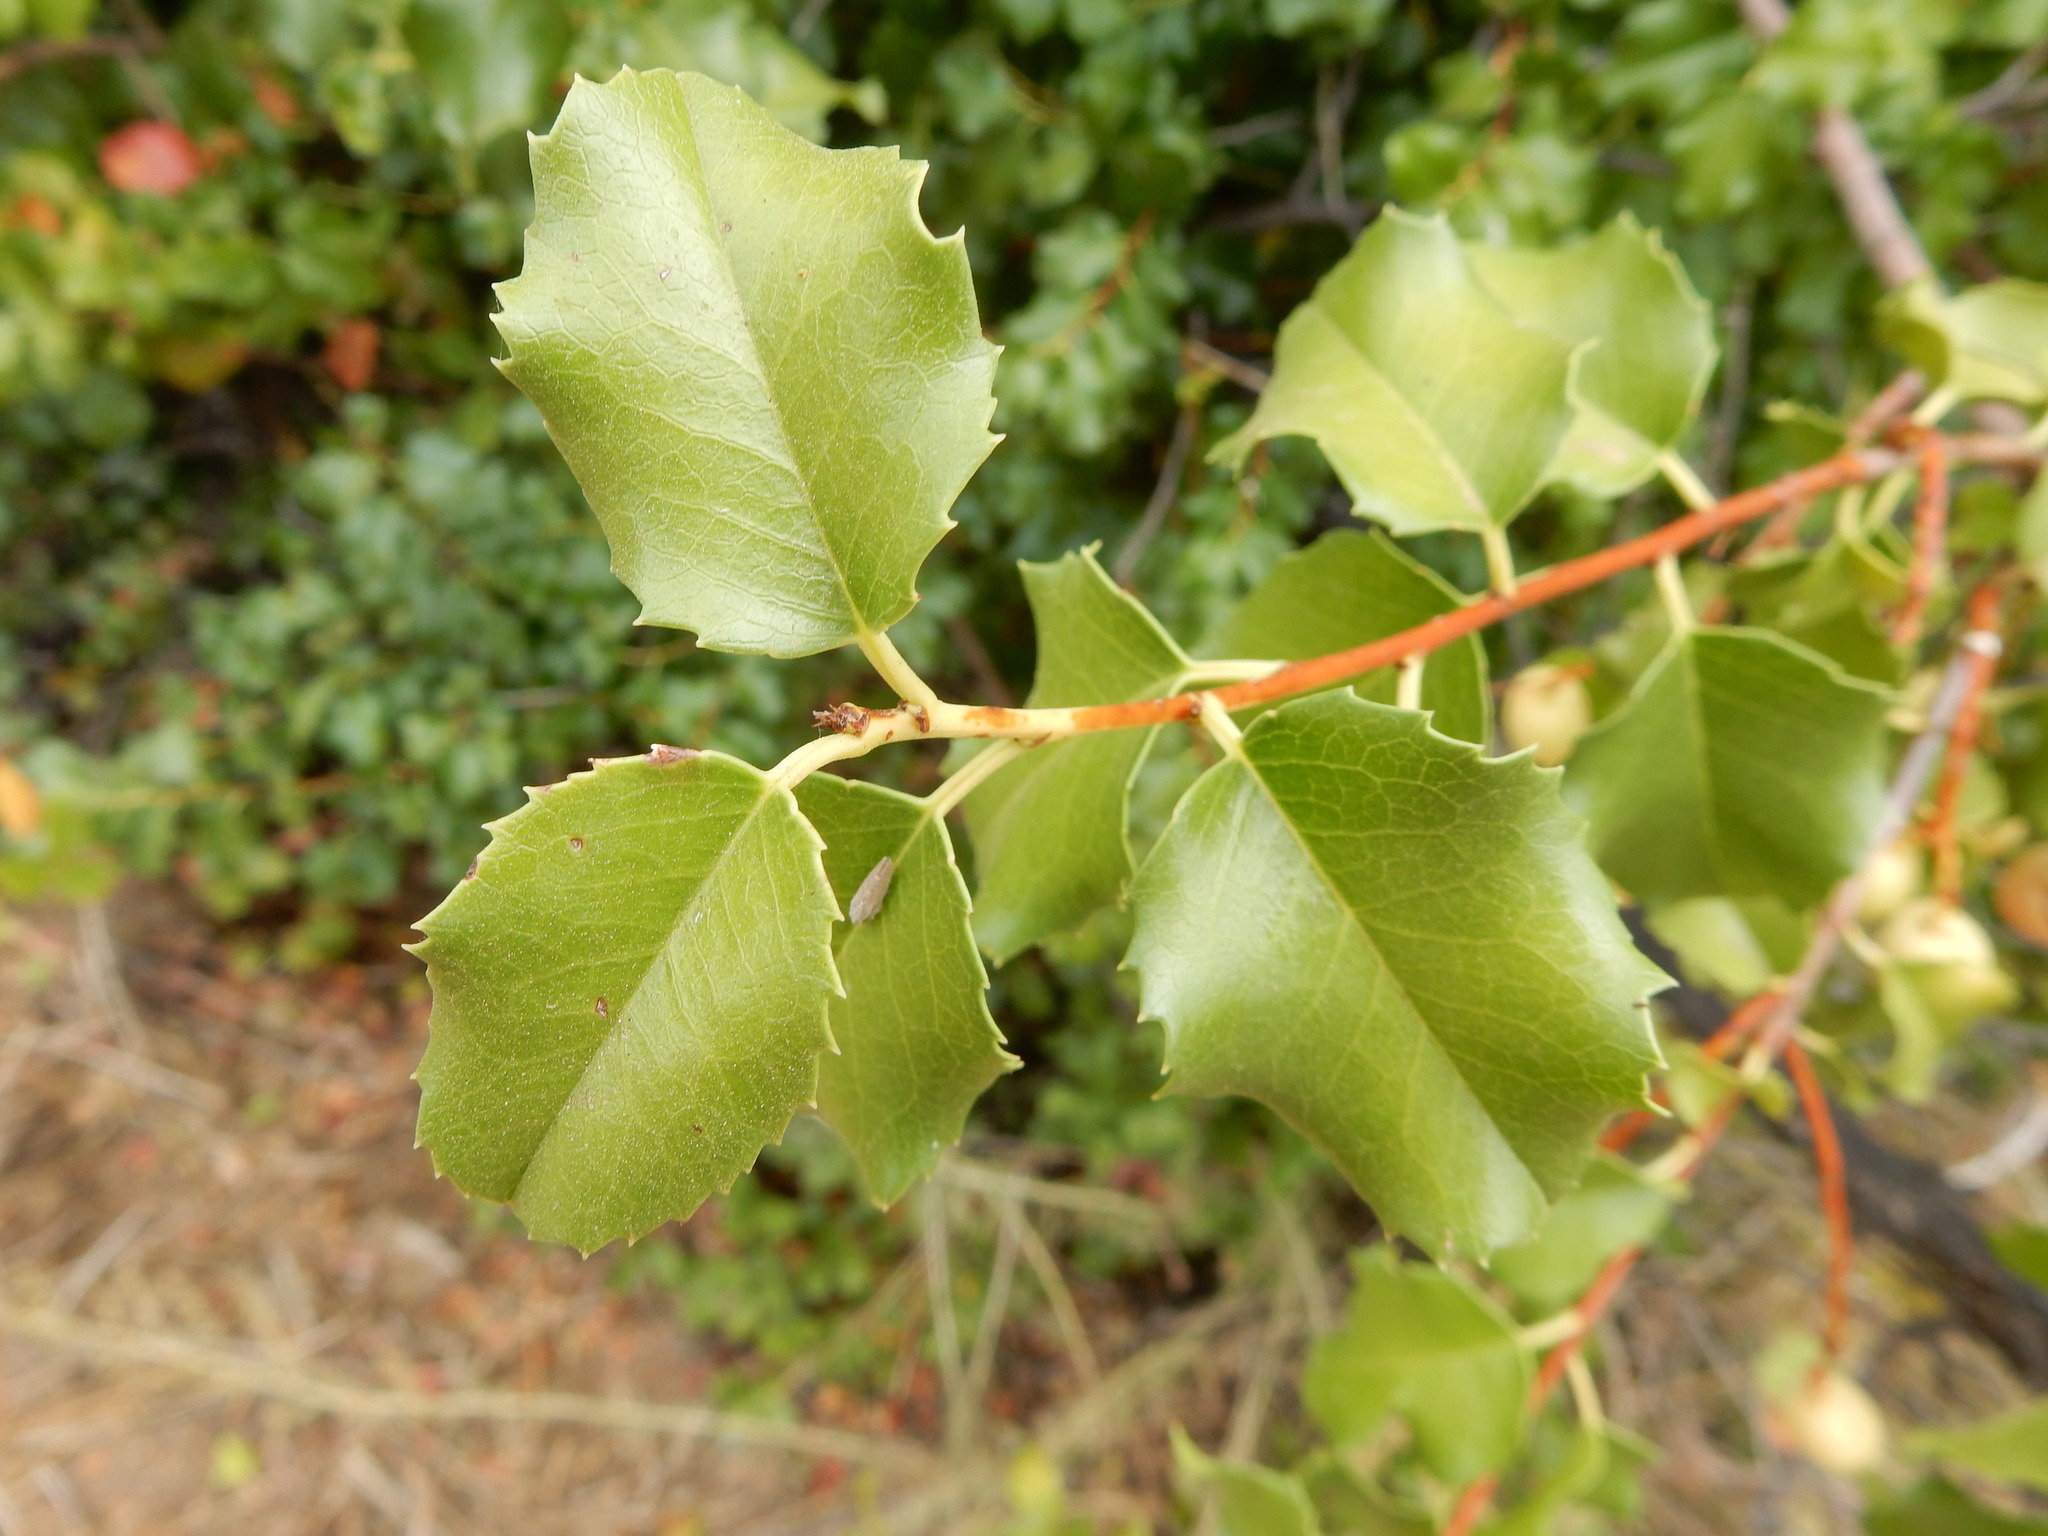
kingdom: Plantae
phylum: Tracheophyta
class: Magnoliopsida
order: Rosales
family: Rosaceae
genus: Prunus
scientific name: Prunus ilicifolia
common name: Hollyleaf cherry
